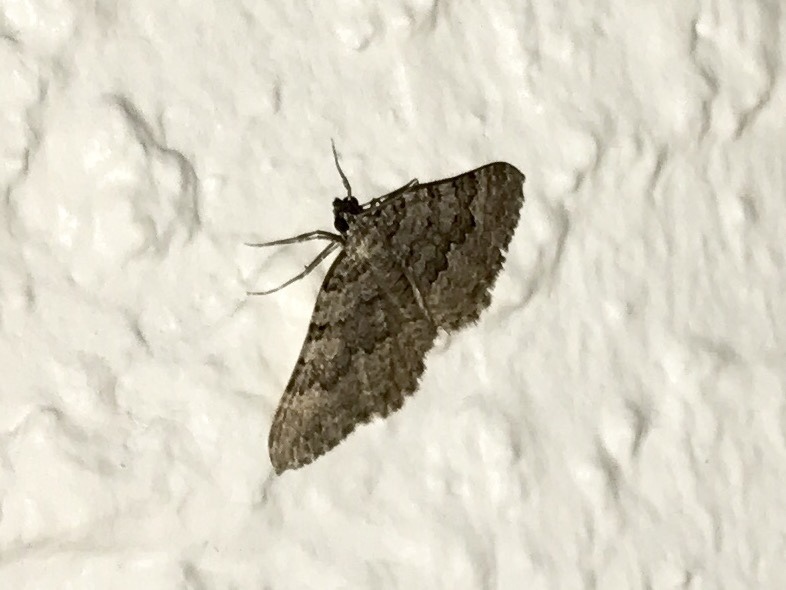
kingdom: Animalia
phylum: Arthropoda
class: Insecta
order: Lepidoptera
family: Geometridae
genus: Archirhoe
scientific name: Archirhoe neomexicana
